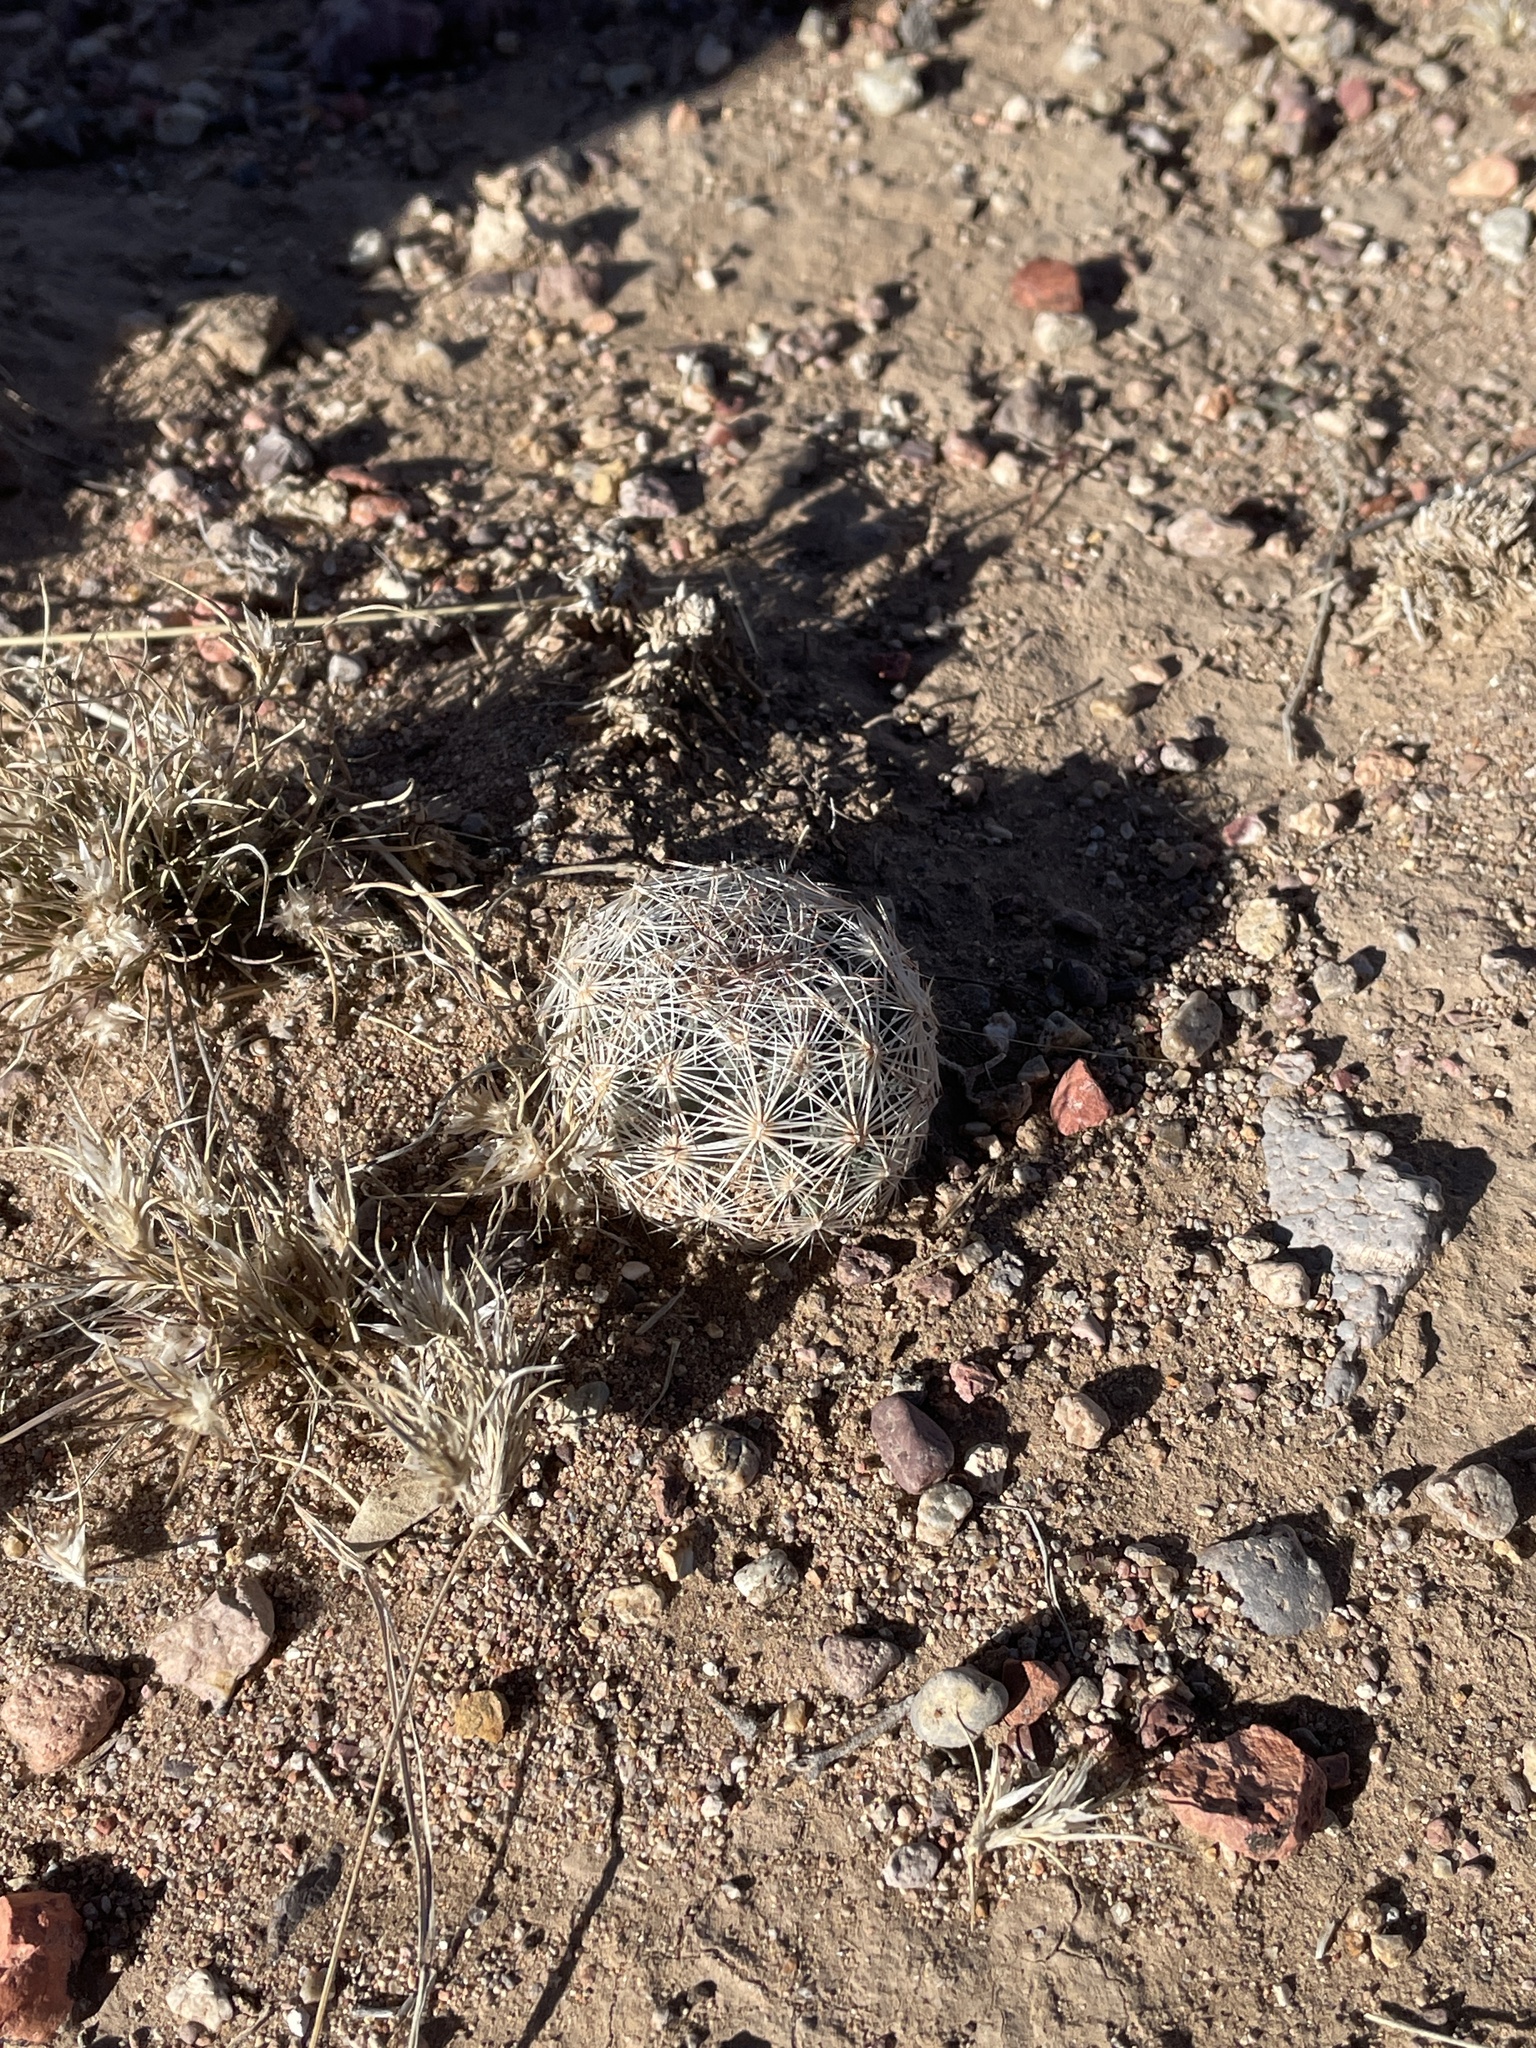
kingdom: Plantae
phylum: Tracheophyta
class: Magnoliopsida
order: Caryophyllales
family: Cactaceae
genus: Pelecyphora
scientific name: Pelecyphora vivipara
